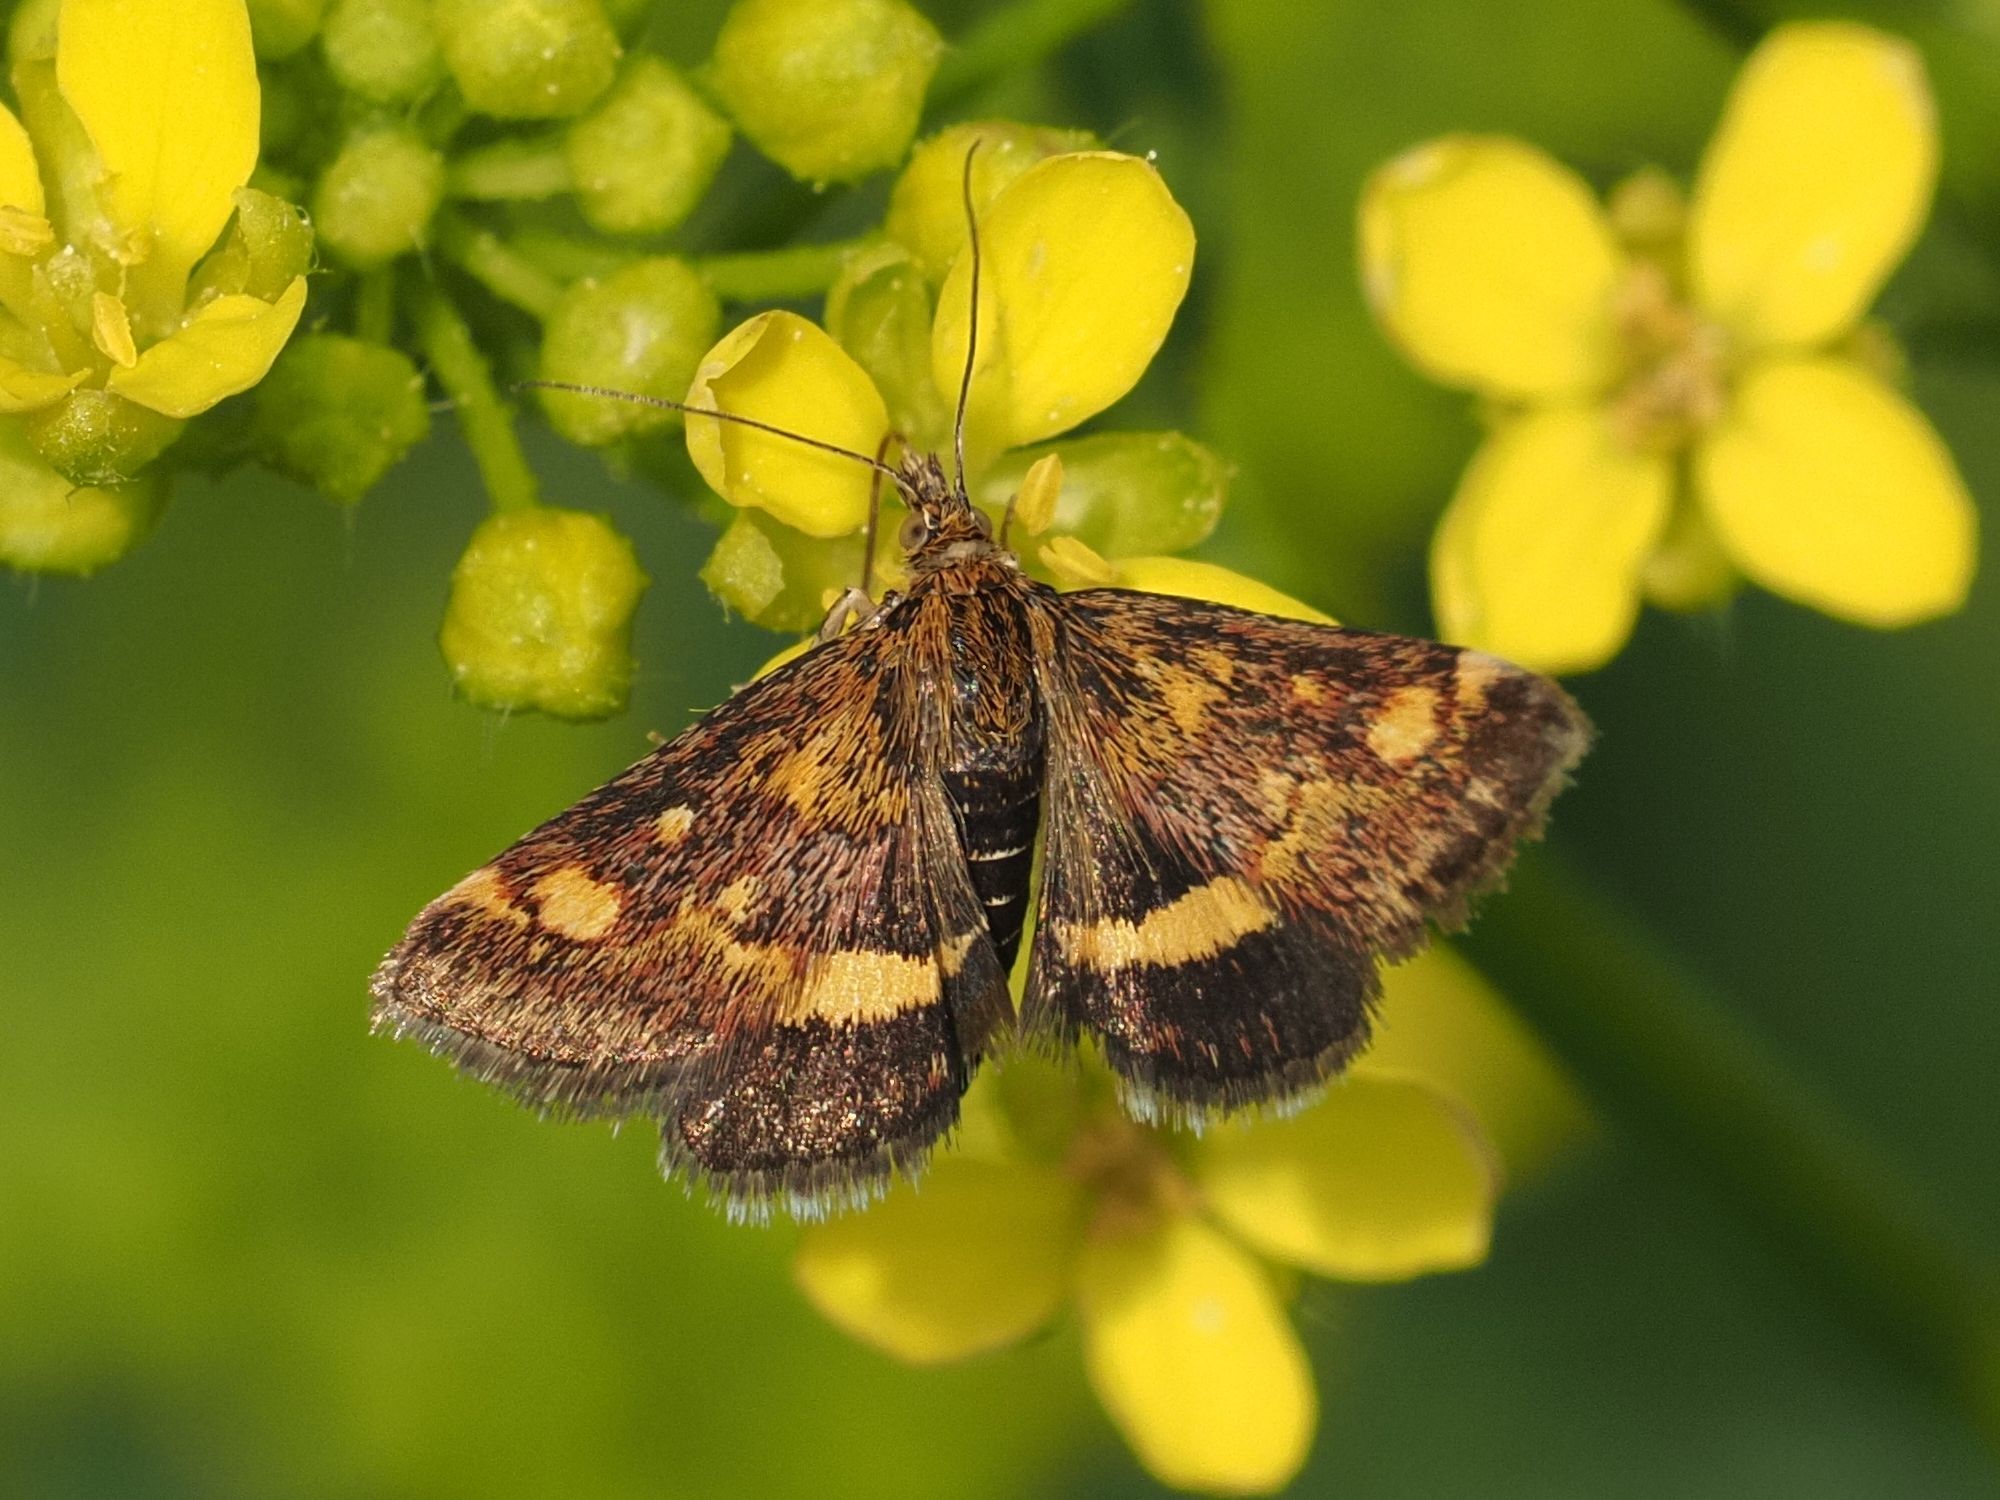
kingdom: Animalia
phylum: Arthropoda
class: Insecta
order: Lepidoptera
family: Crambidae
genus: Pyrausta
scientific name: Pyrausta aurata
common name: Small purple & gold
